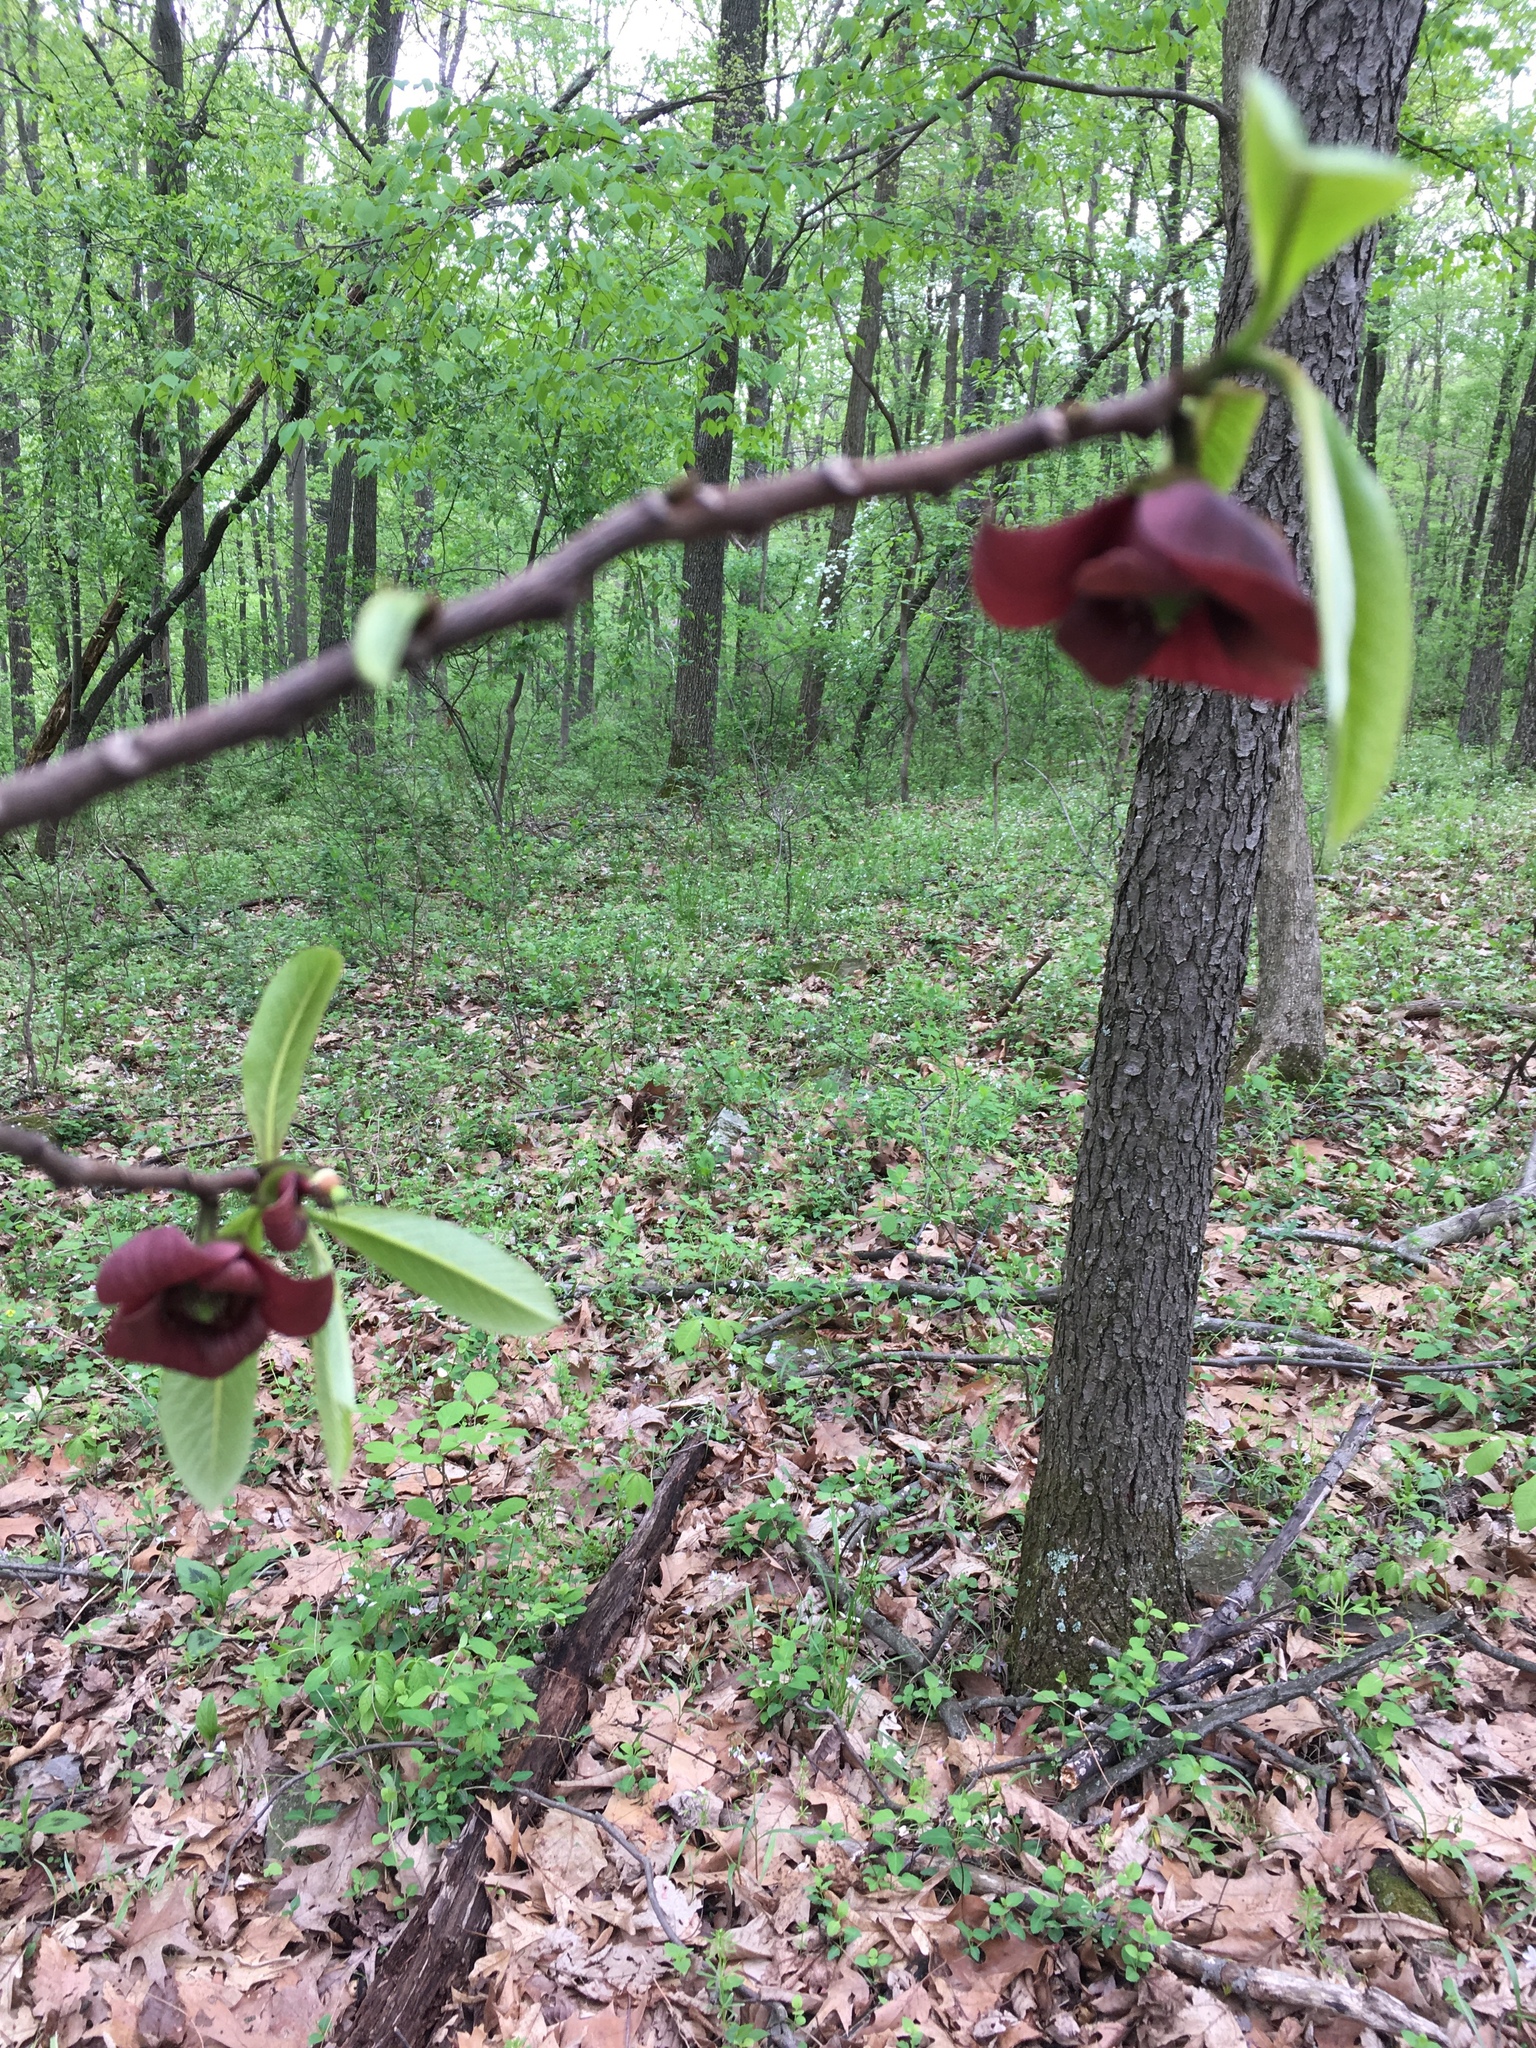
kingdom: Plantae
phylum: Tracheophyta
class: Magnoliopsida
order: Magnoliales
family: Annonaceae
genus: Asimina
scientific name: Asimina triloba
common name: Dog-banana
